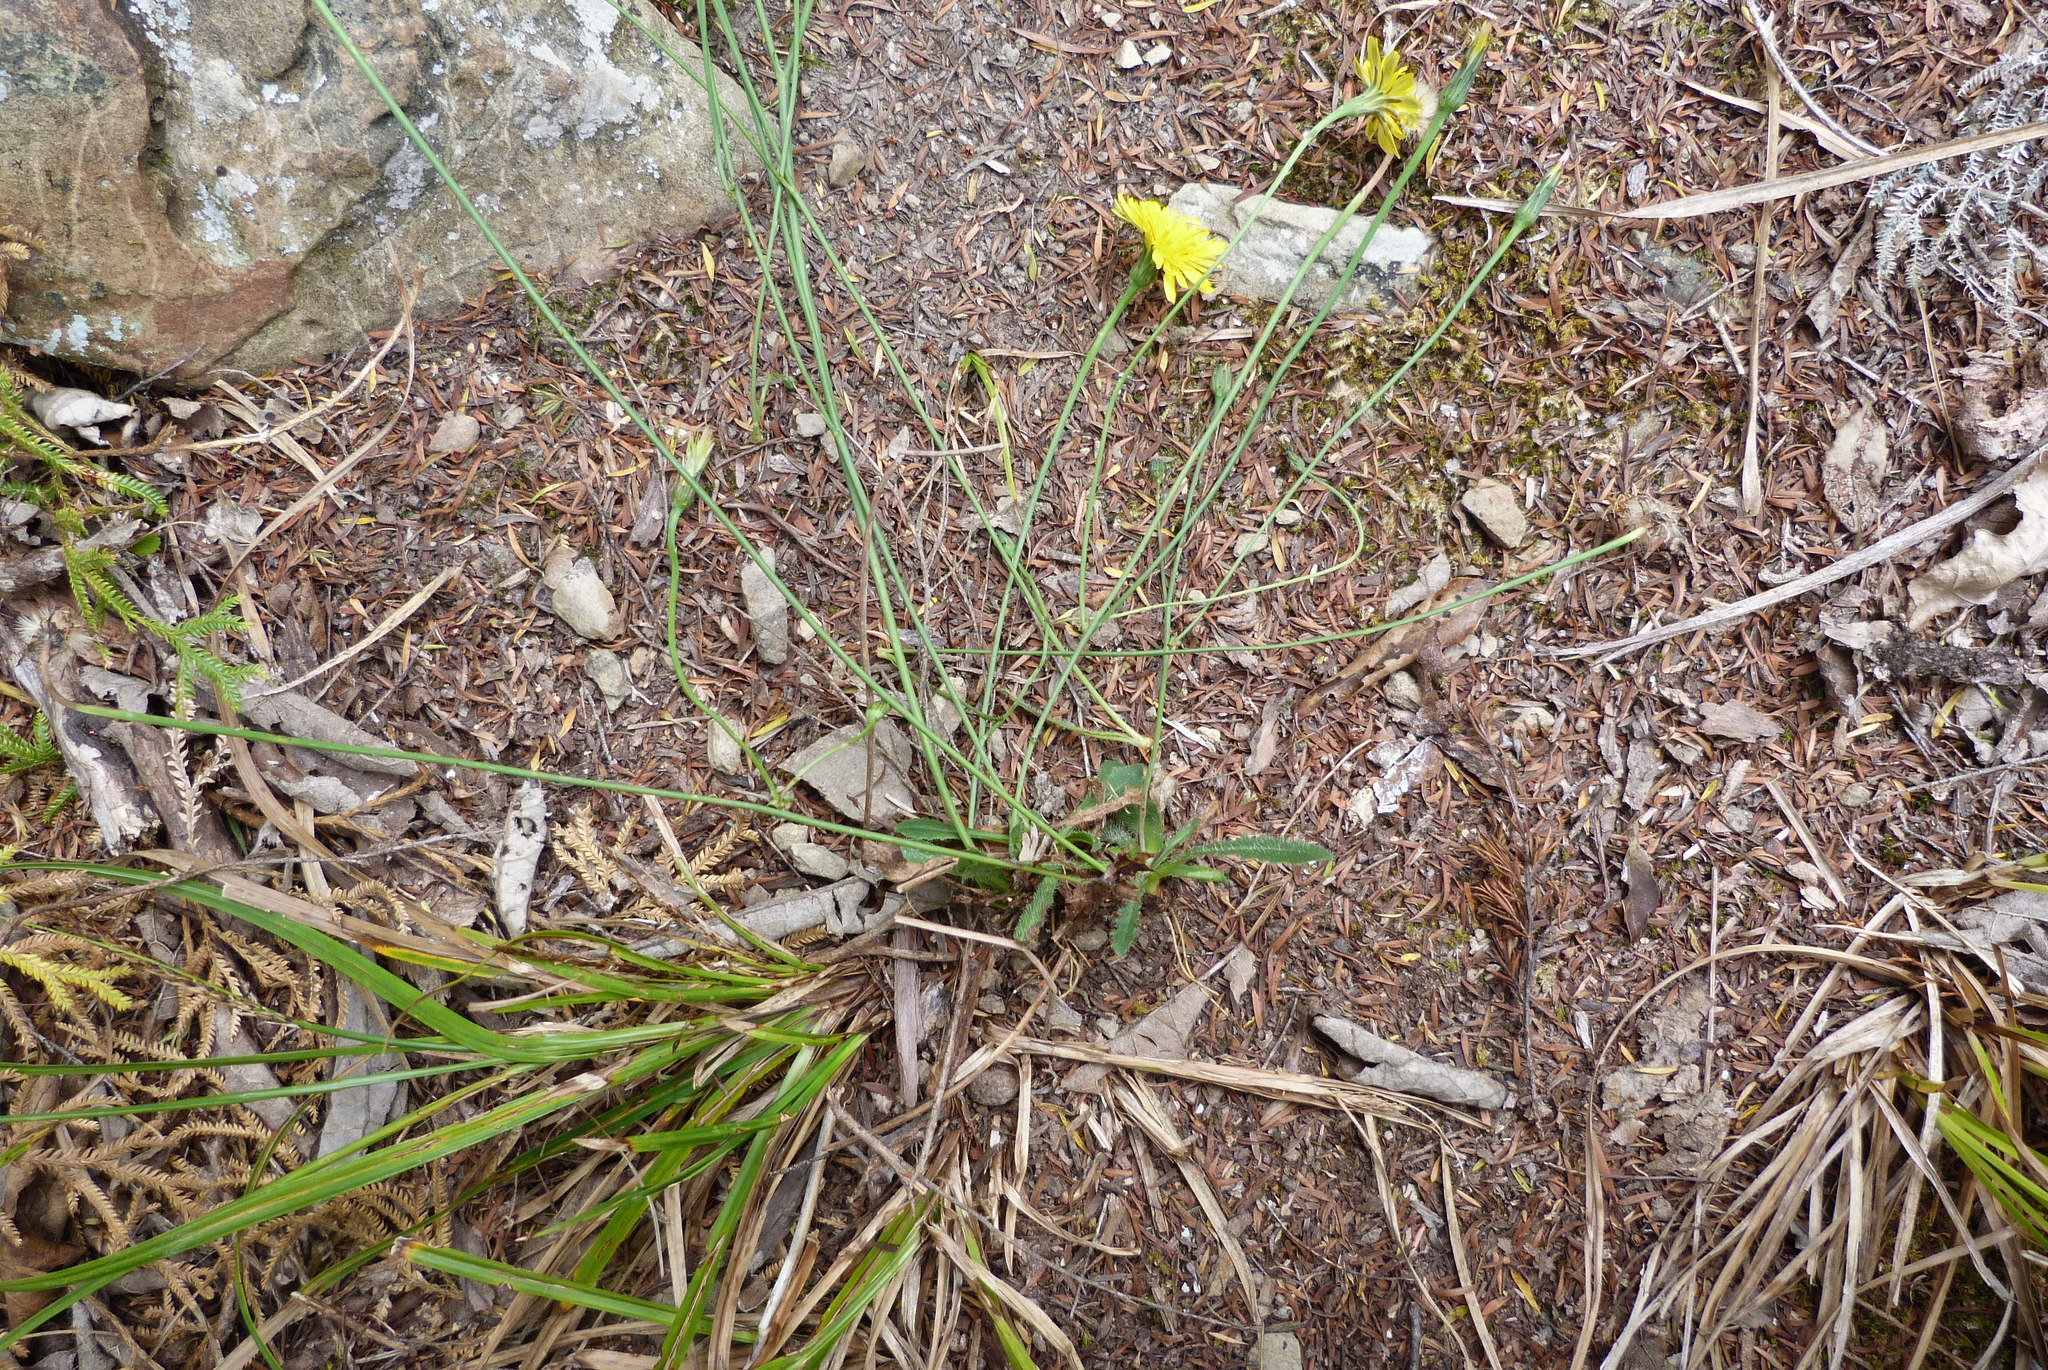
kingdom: Plantae
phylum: Tracheophyta
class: Magnoliopsida
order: Asterales
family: Asteraceae
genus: Hypochaeris
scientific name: Hypochaeris radicata
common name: Flatweed
